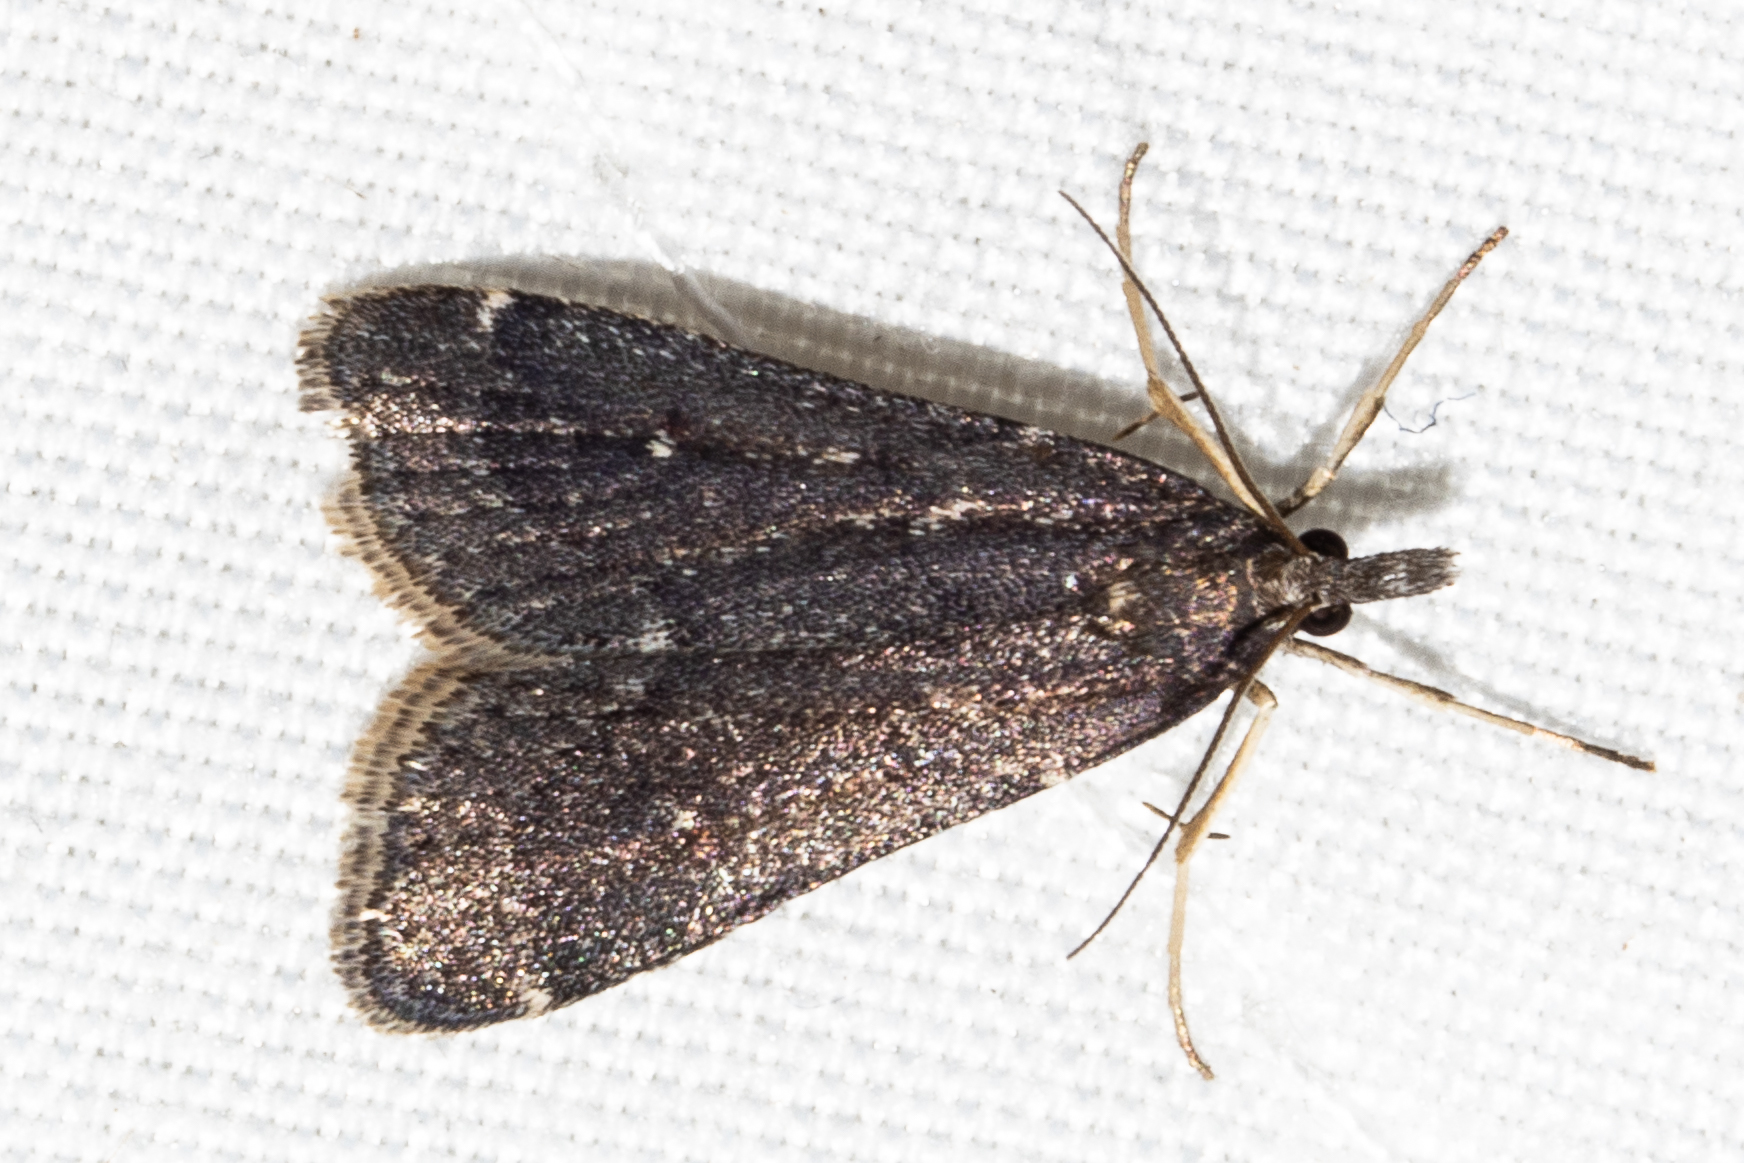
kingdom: Animalia
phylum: Arthropoda
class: Insecta
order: Lepidoptera
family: Crambidae
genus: Eudonia
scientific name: Eudonia oculata
